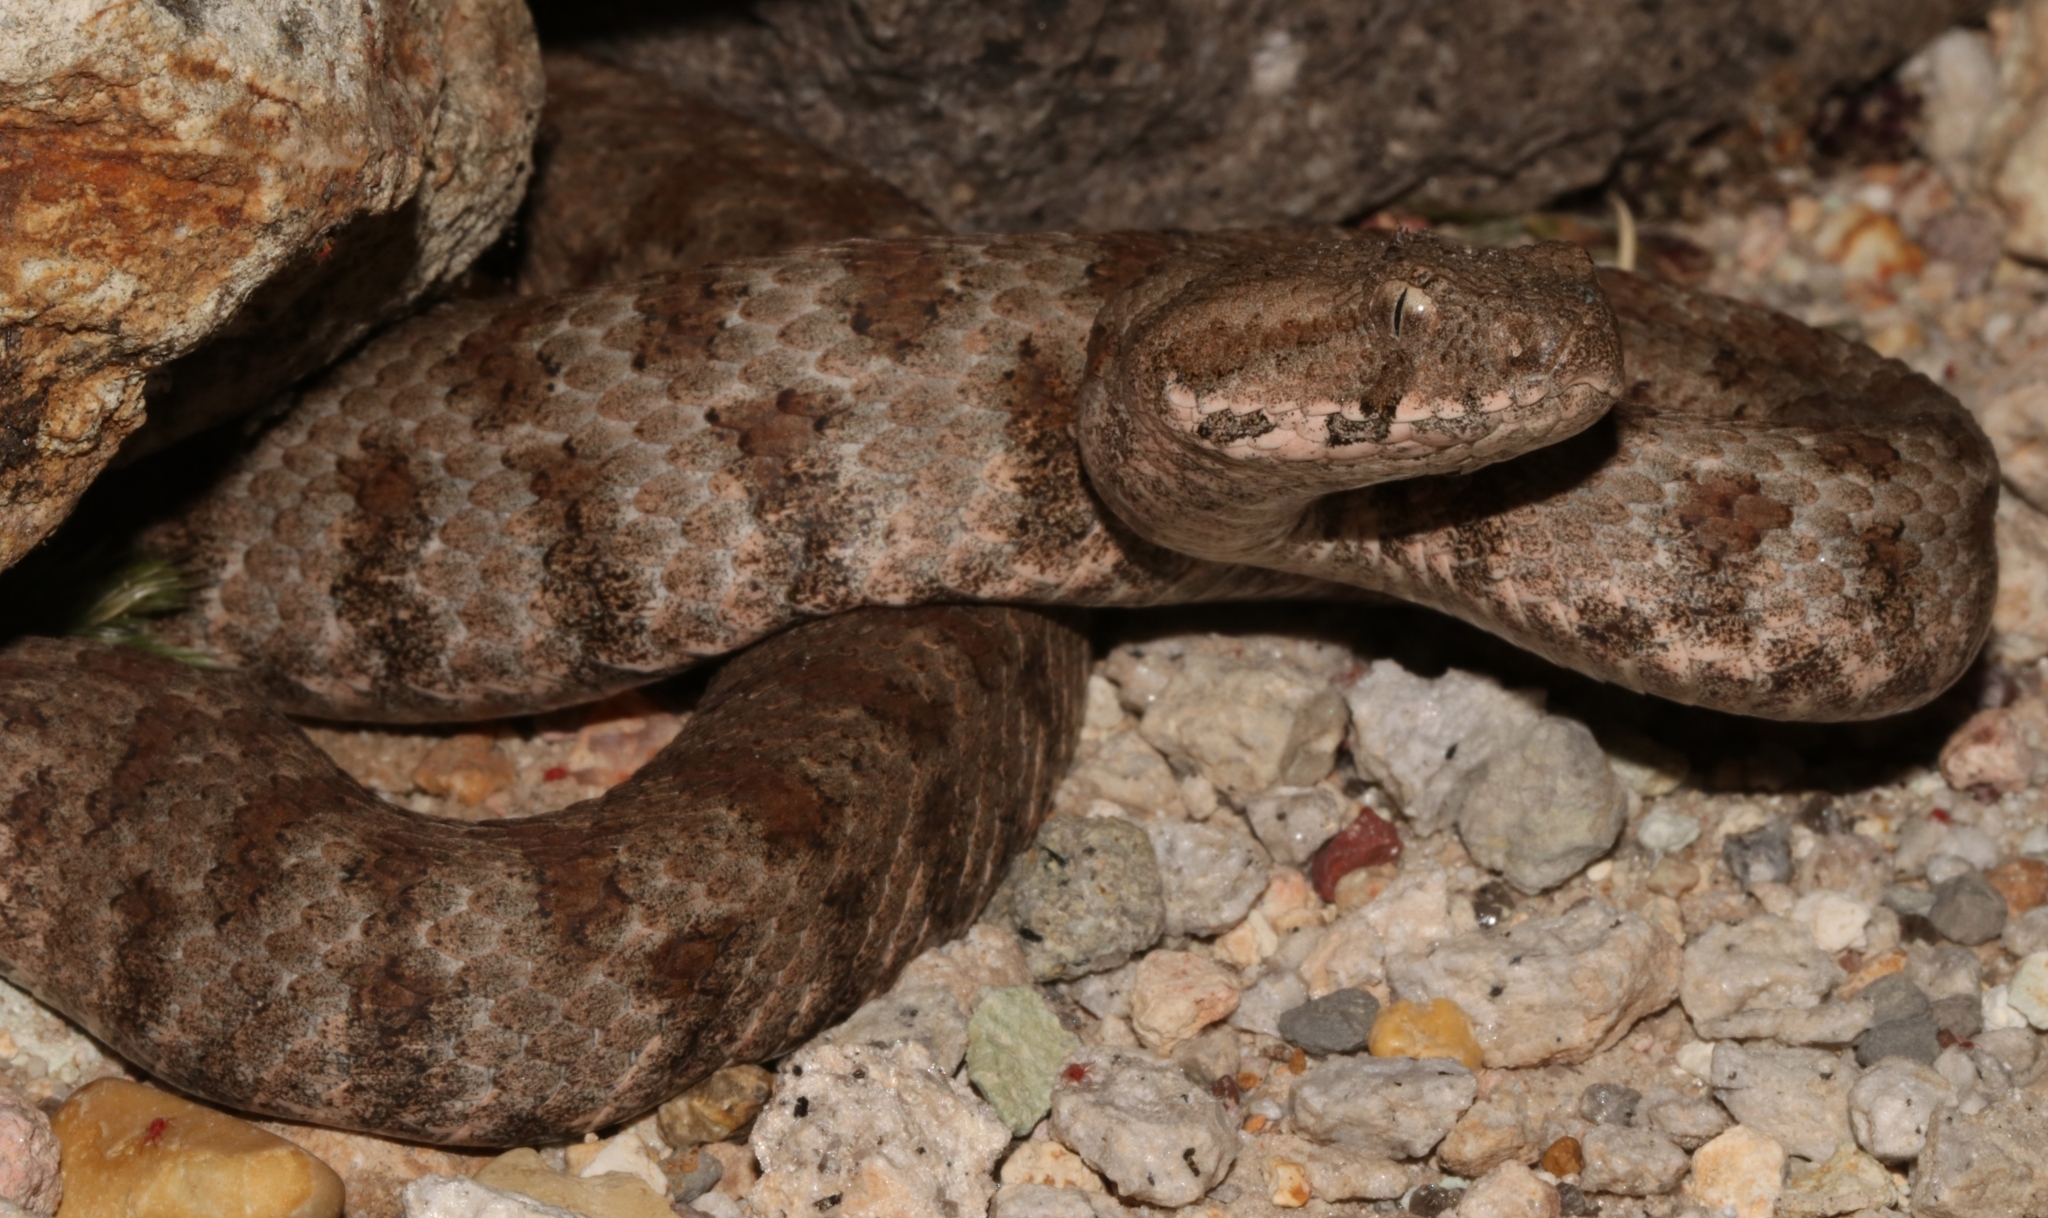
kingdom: Animalia
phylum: Chordata
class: Squamata
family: Viperidae
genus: Macrovipera
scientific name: Macrovipera lebetinus
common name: Levantine viper
